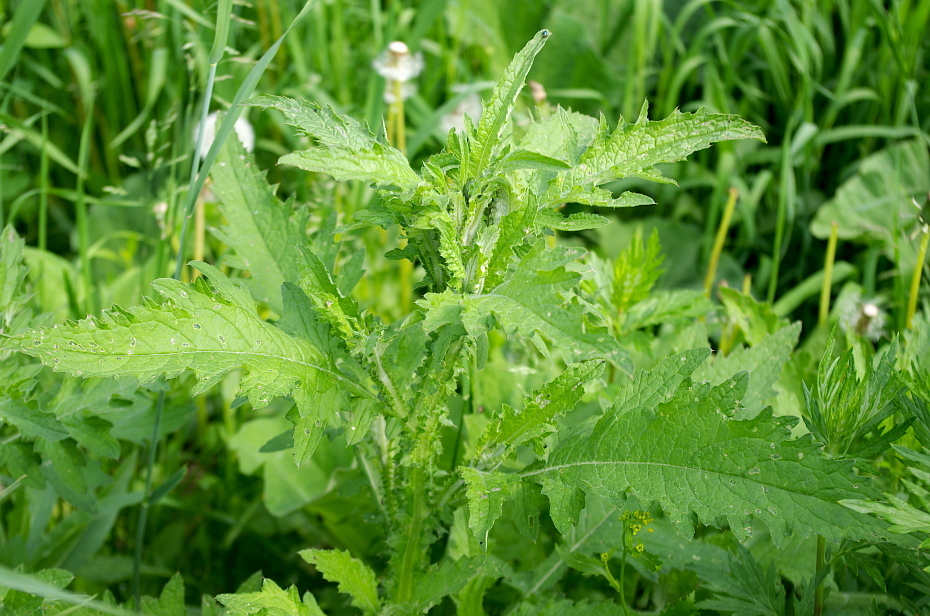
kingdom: Plantae
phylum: Tracheophyta
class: Magnoliopsida
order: Asterales
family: Asteraceae
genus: Carduus
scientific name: Carduus crispus
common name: Welted thistle
